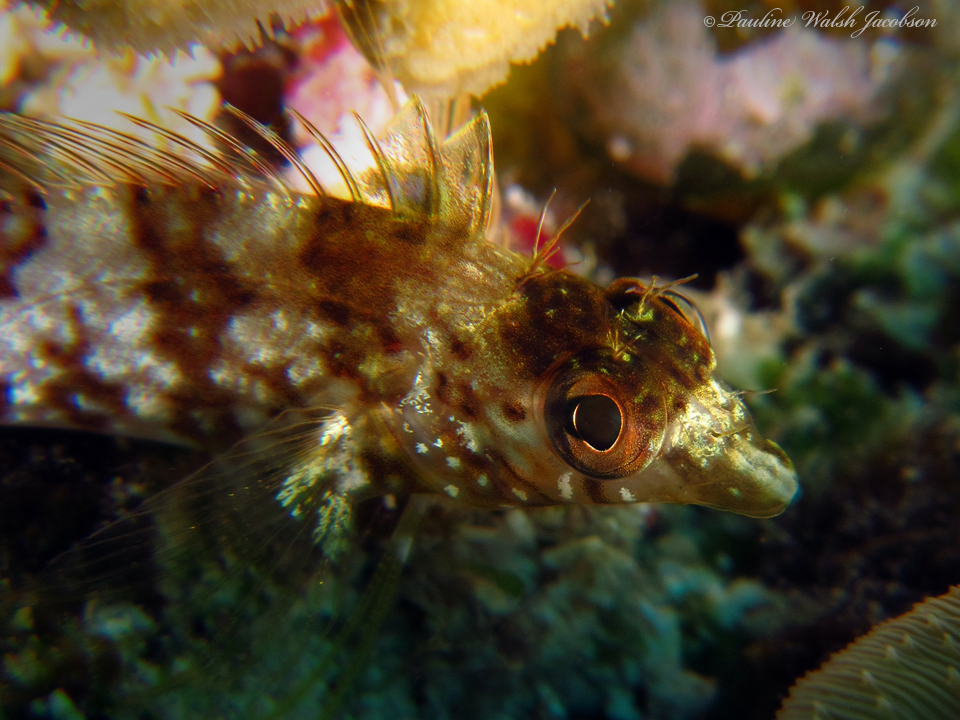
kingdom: Animalia
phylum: Chordata
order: Perciformes
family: Labrisomidae
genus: Malacoctenus
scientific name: Malacoctenus boehlkei
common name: Diamond blenny
